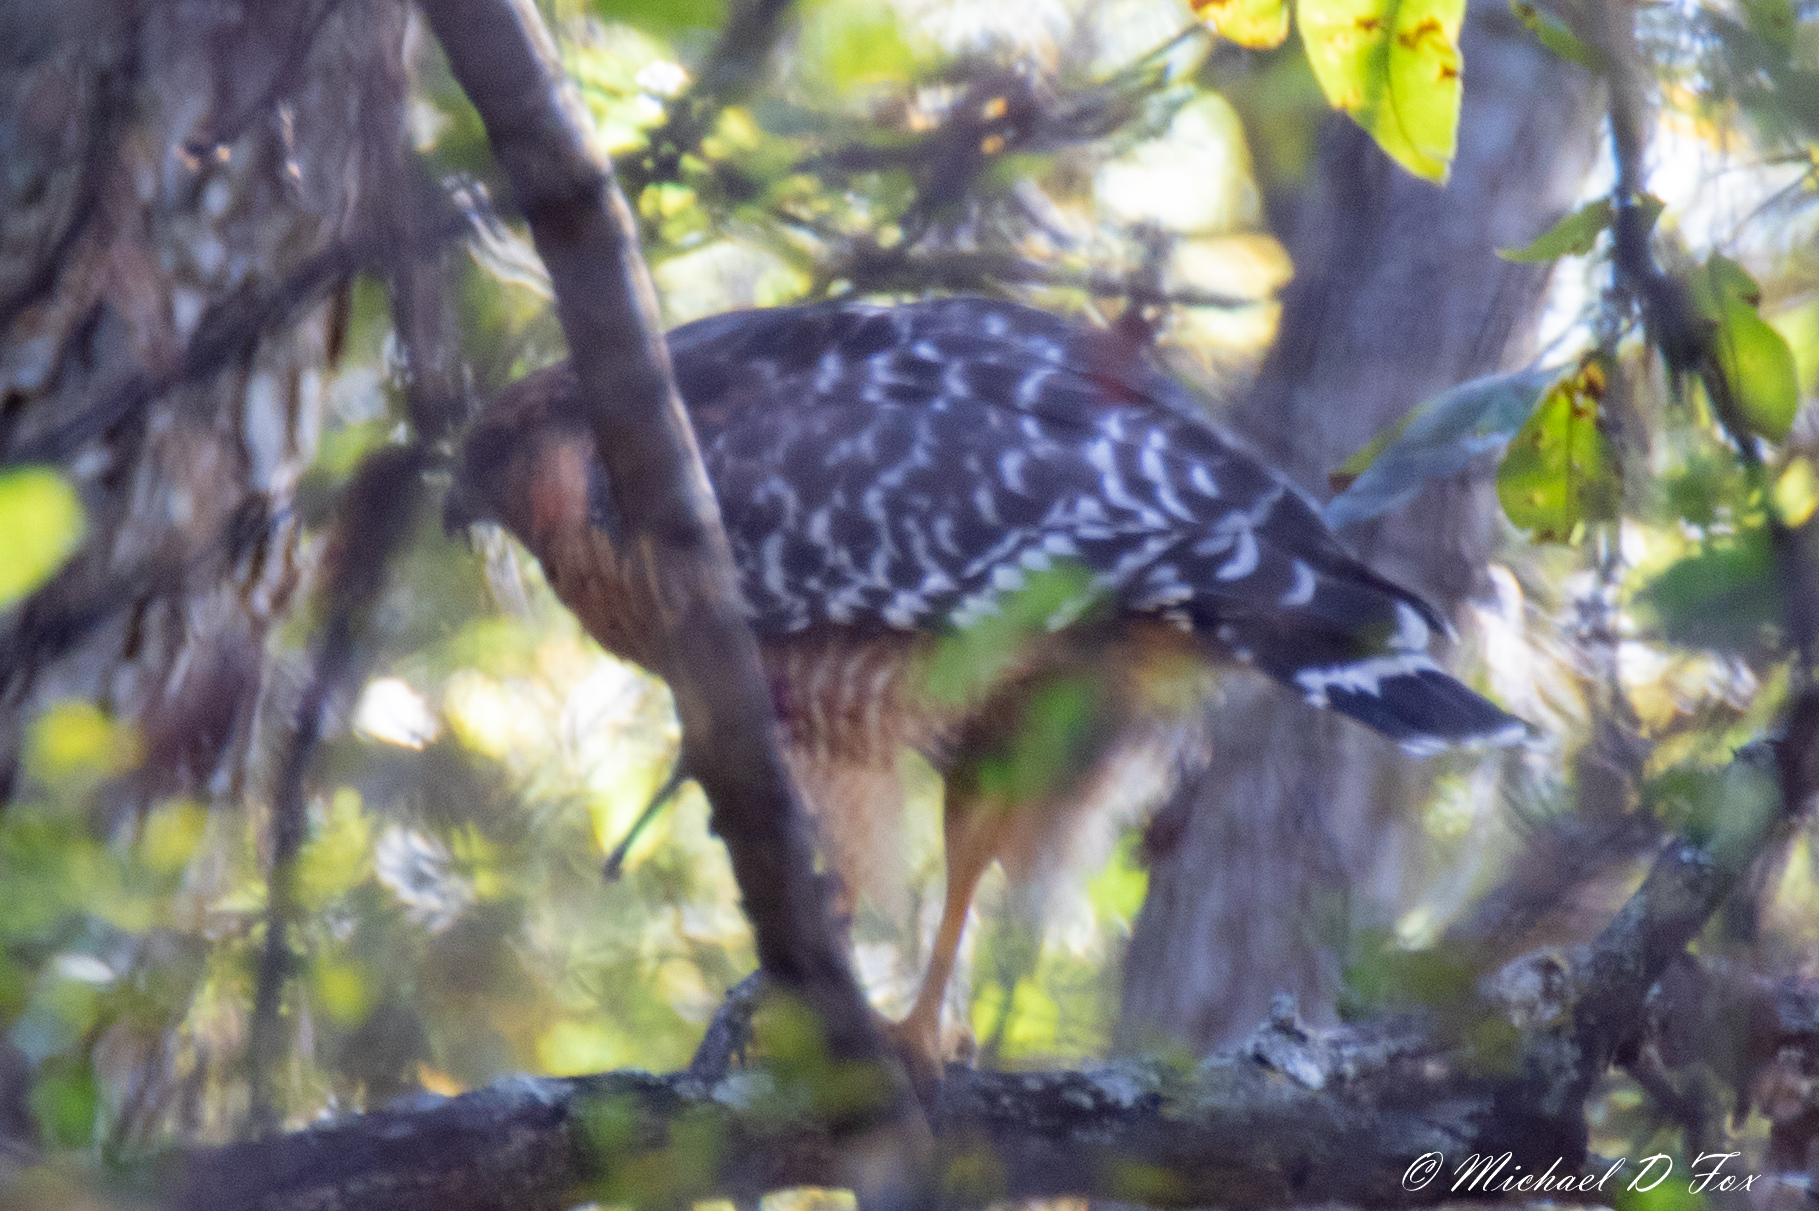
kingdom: Animalia
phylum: Chordata
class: Aves
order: Accipitriformes
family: Accipitridae
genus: Buteo
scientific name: Buteo lineatus
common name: Red-shouldered hawk
